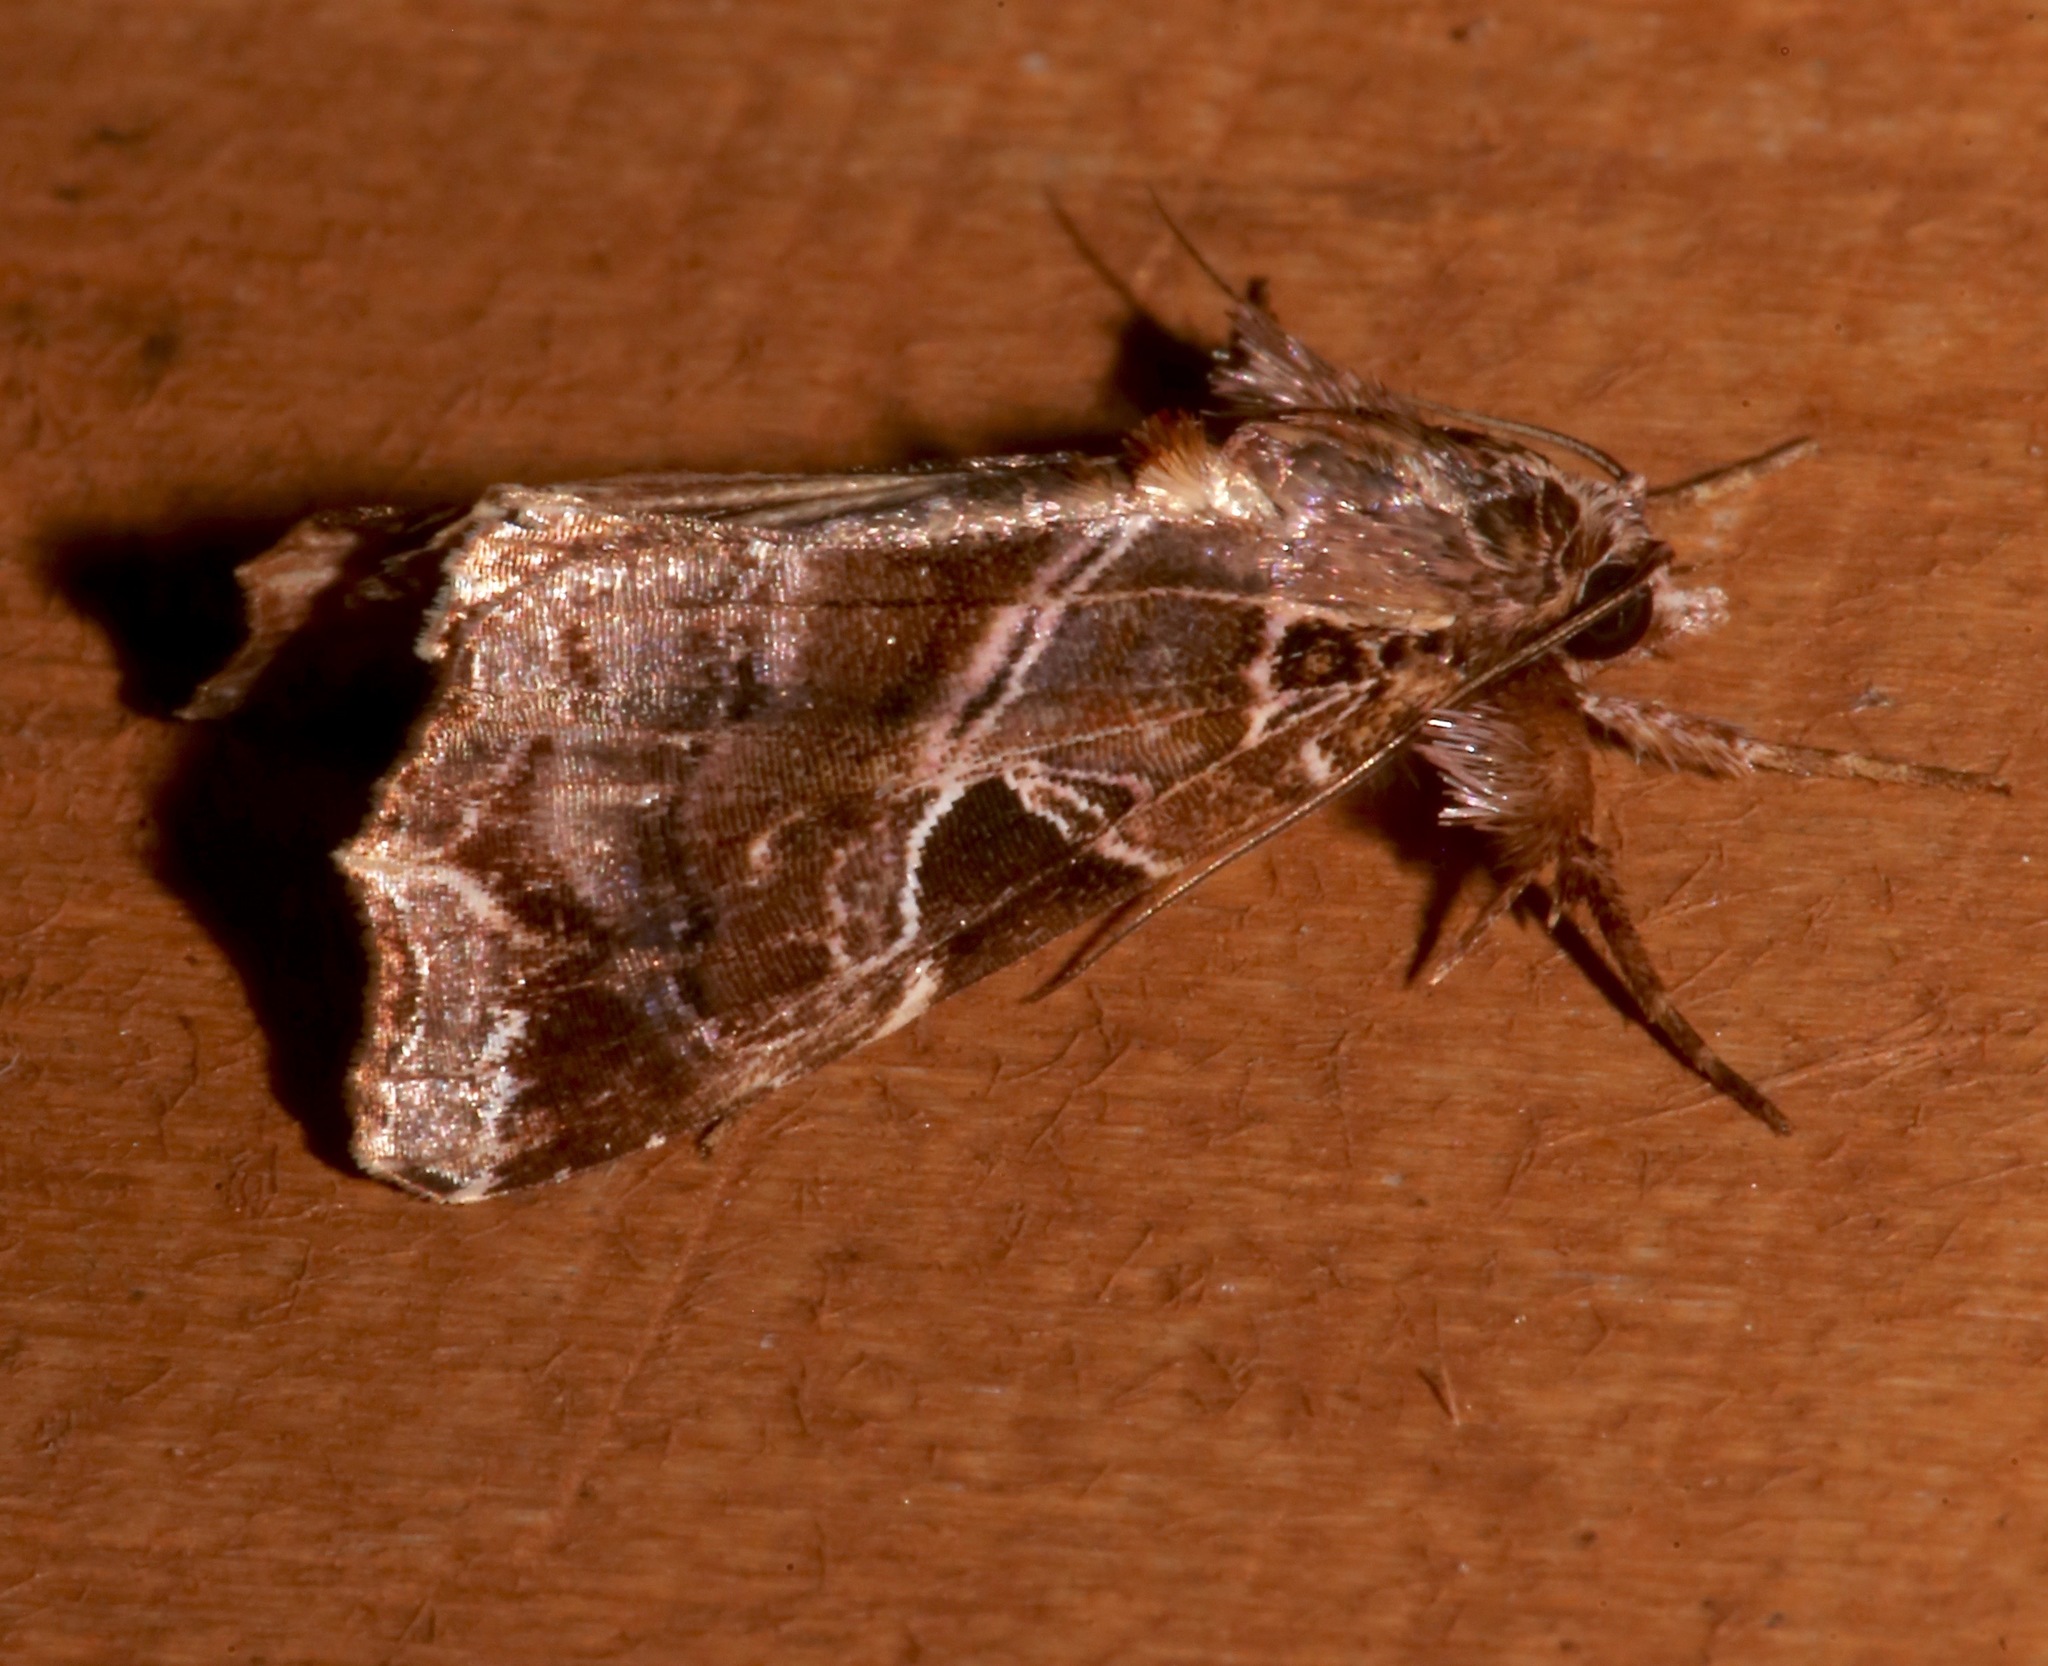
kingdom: Animalia
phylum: Arthropoda
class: Insecta
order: Lepidoptera
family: Noctuidae
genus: Callopistria
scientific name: Callopistria floridensis
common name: Florida fern moth
